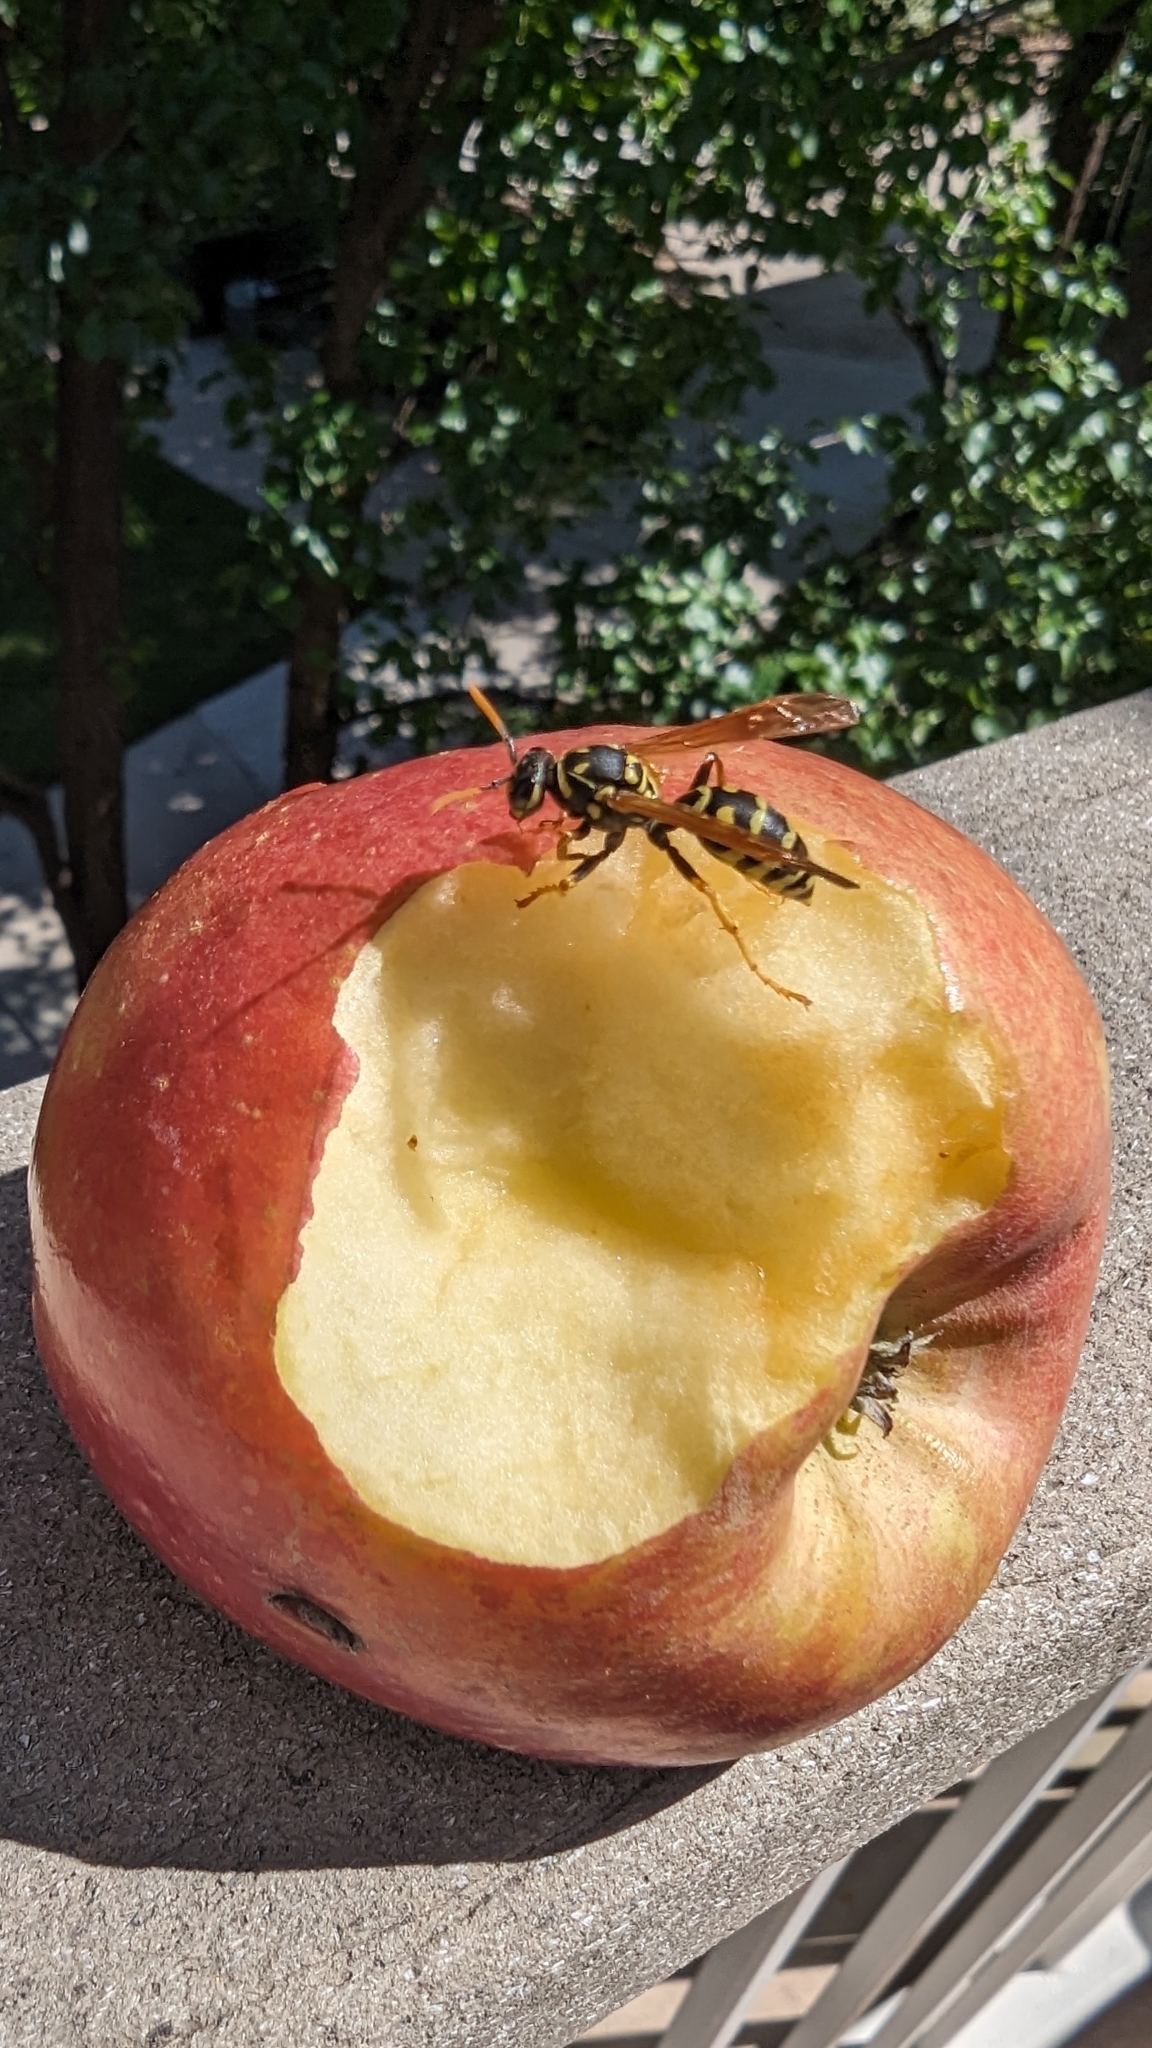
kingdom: Animalia
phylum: Arthropoda
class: Insecta
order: Hymenoptera
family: Eumenidae
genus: Polistes
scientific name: Polistes dominula
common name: Paper wasp
